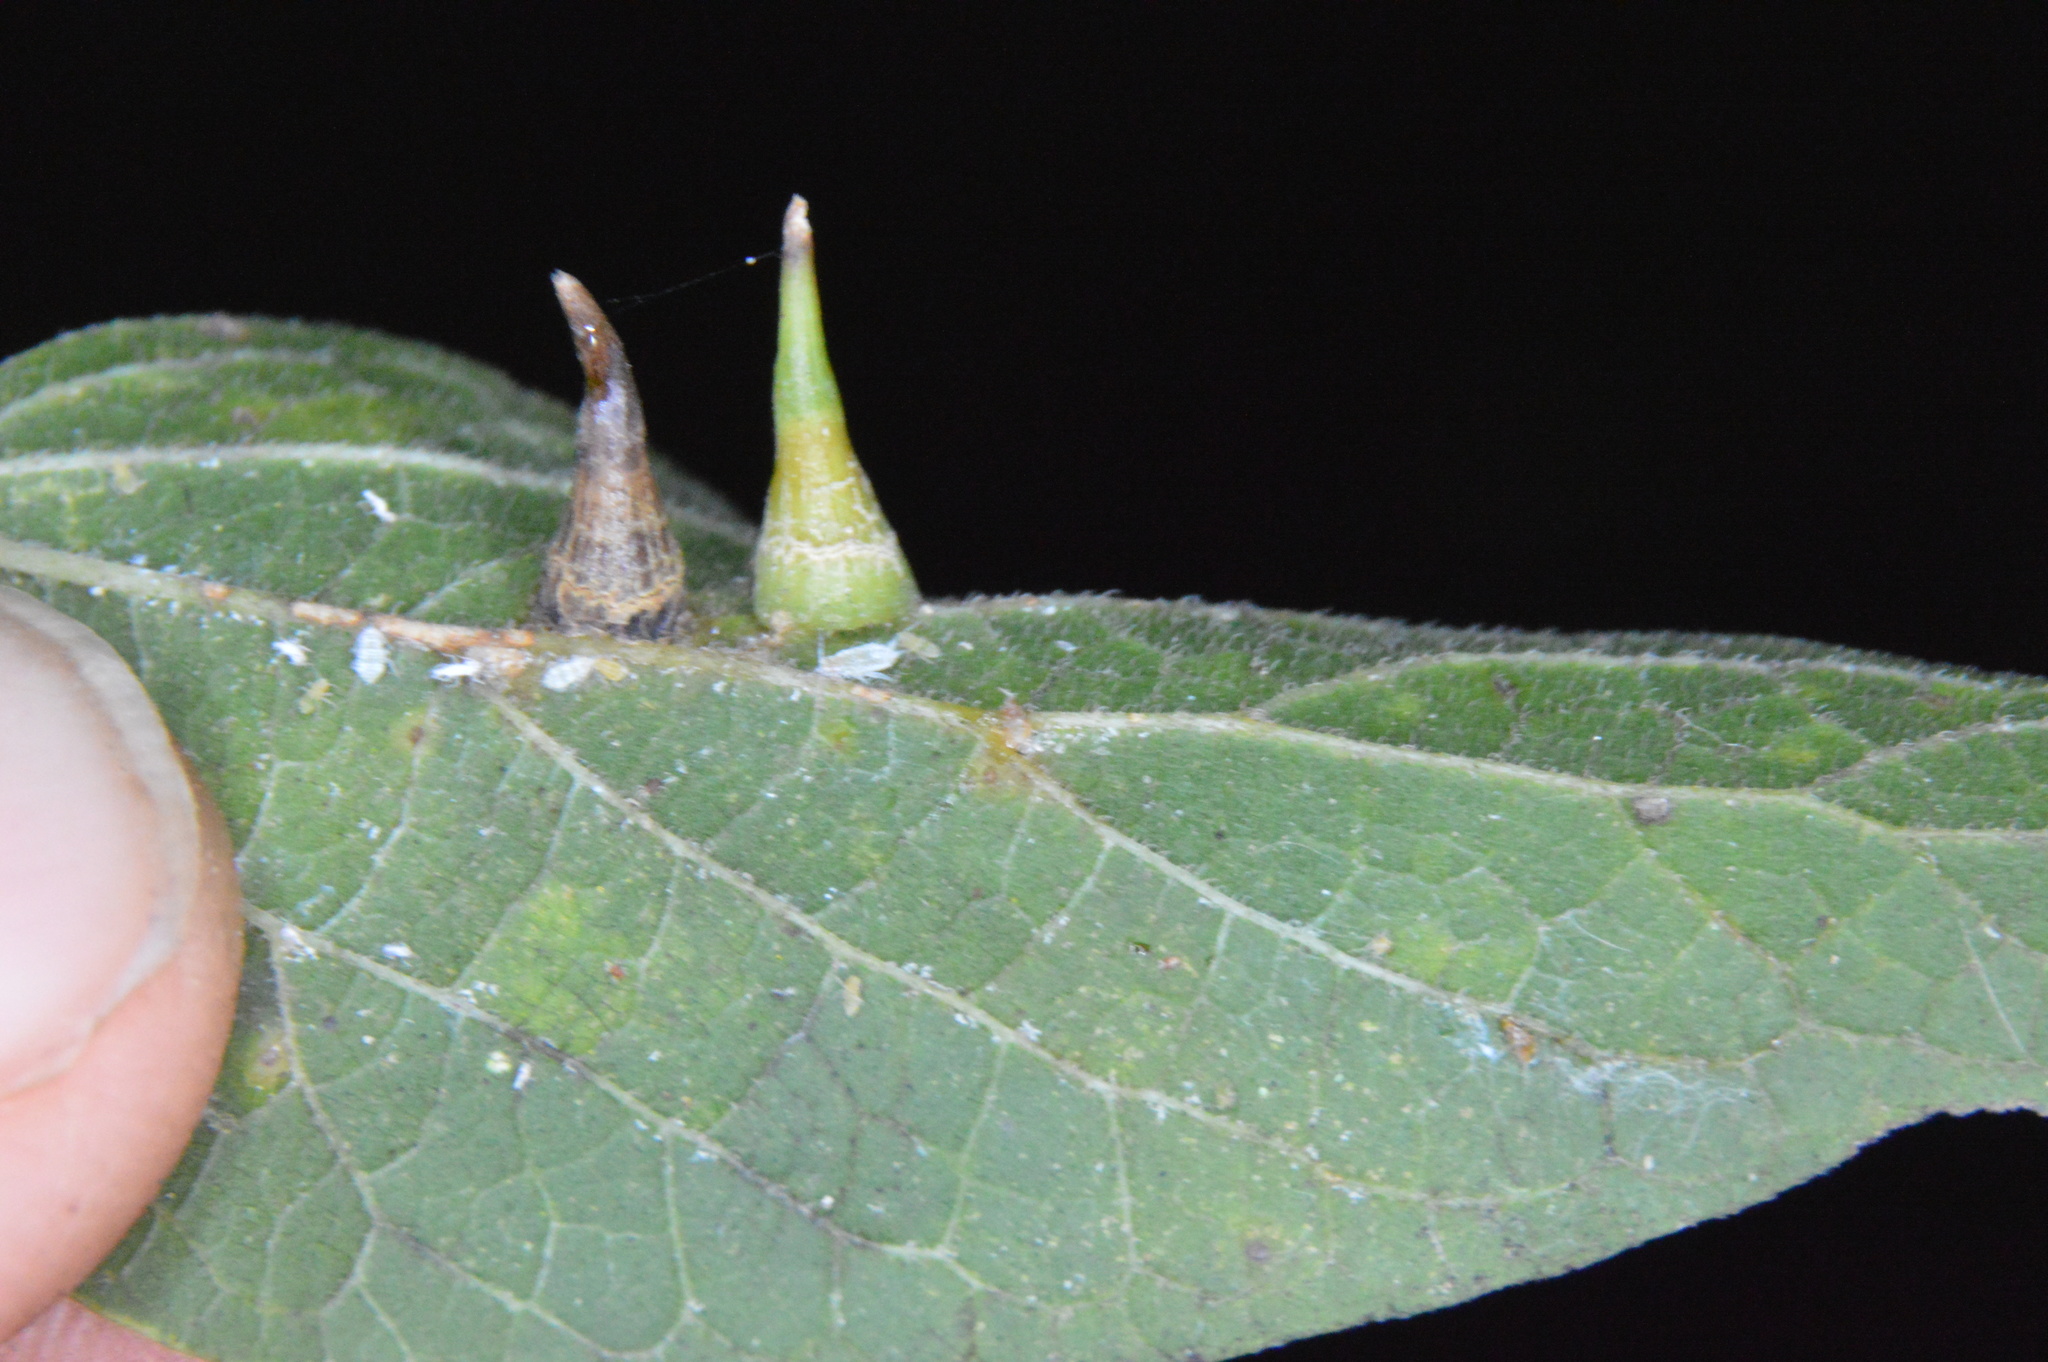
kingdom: Animalia
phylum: Arthropoda
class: Insecta
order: Diptera
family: Cecidomyiidae
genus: Celticecis
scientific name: Celticecis subulata
